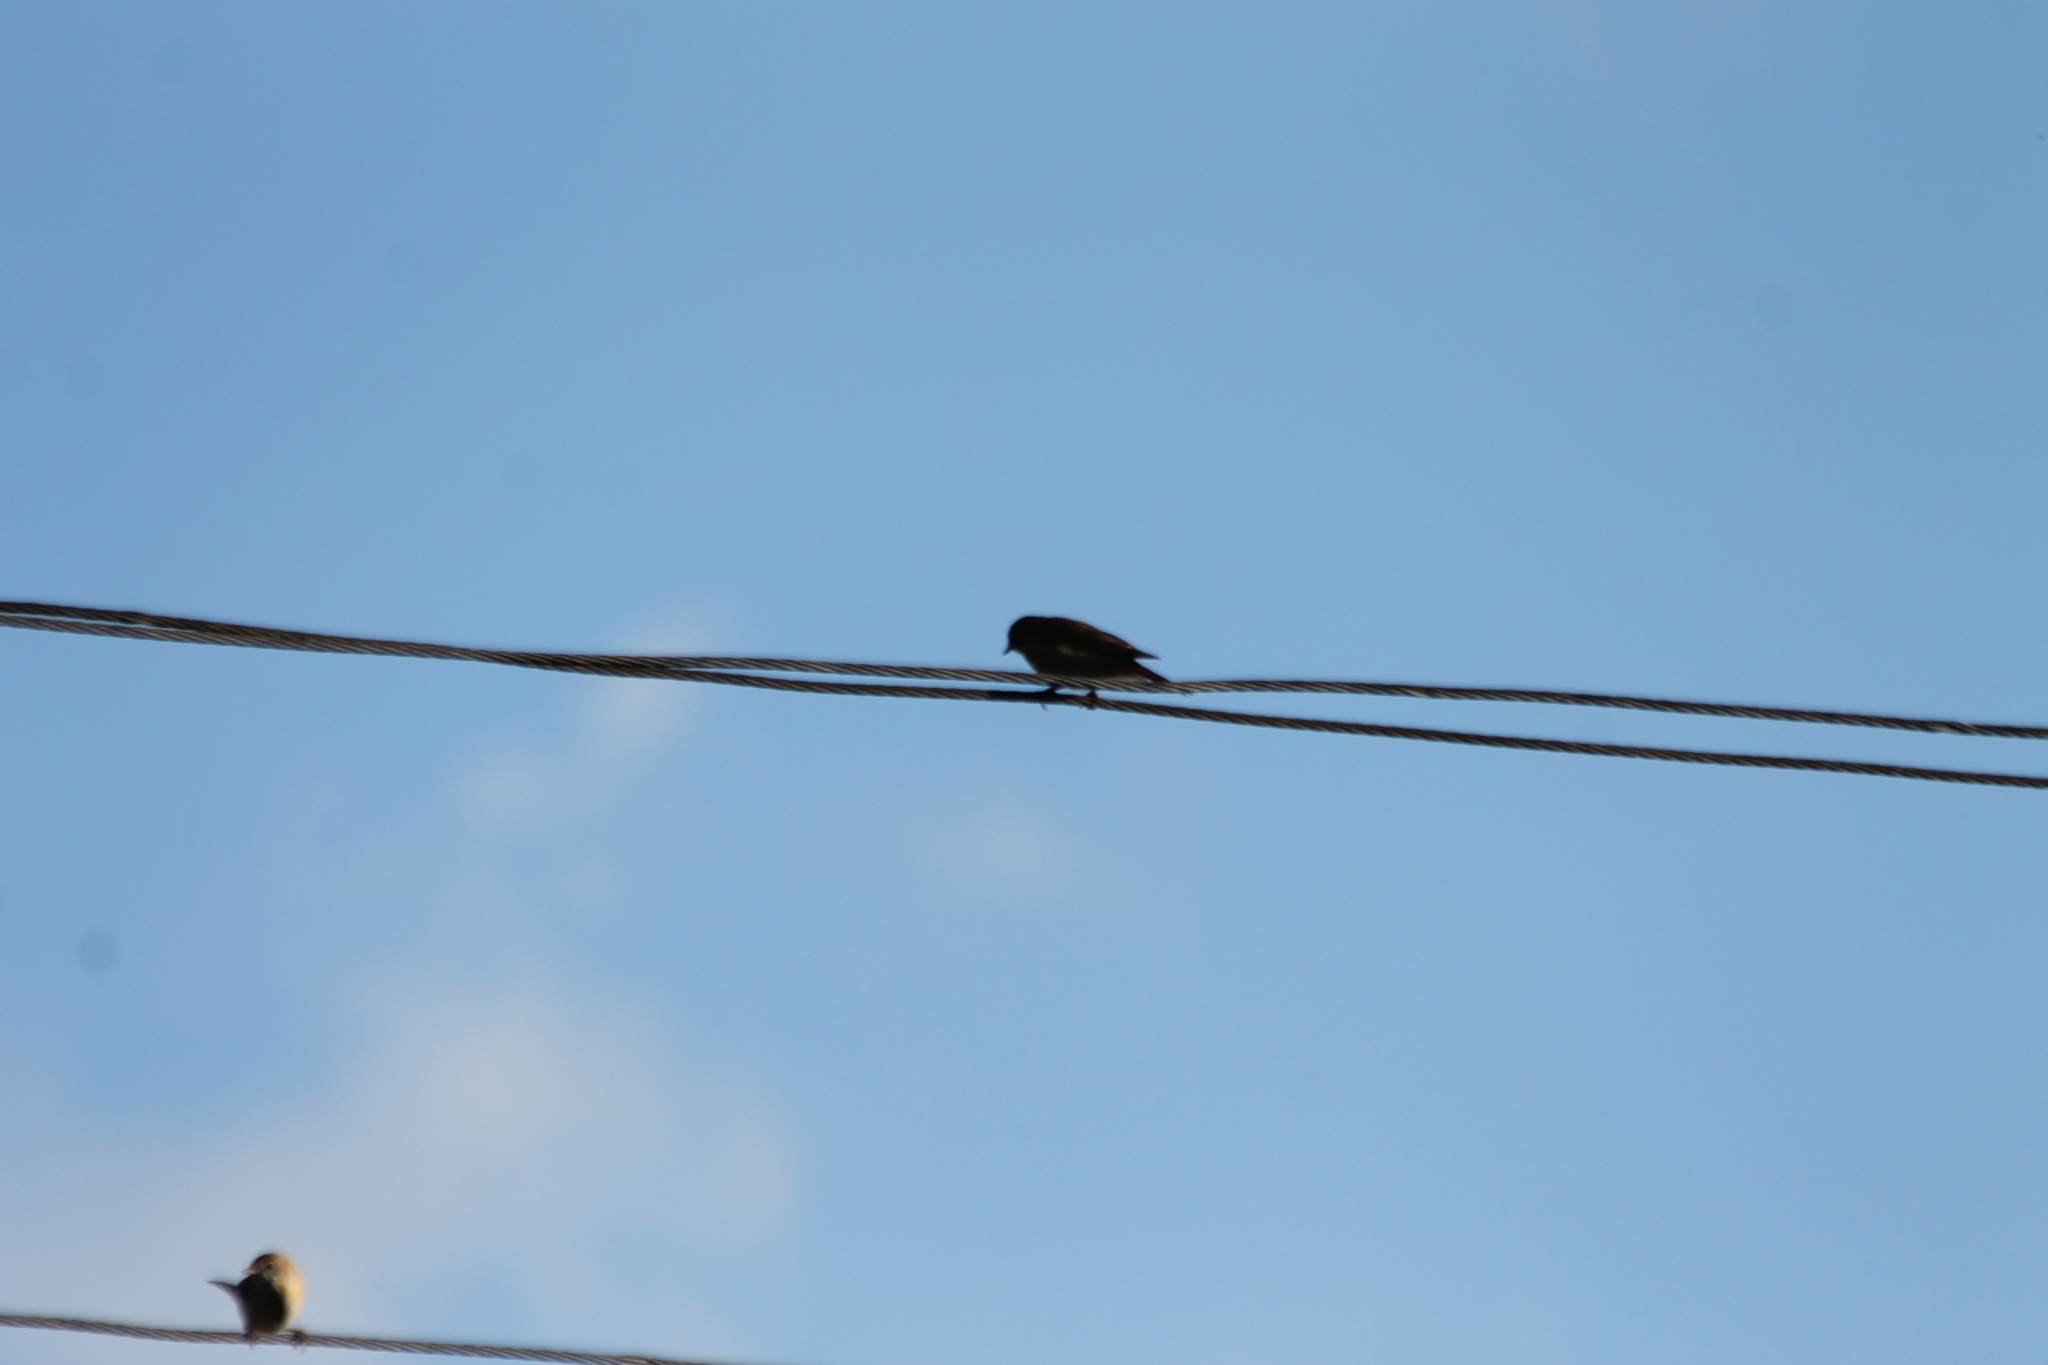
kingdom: Animalia
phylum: Chordata
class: Aves
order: Passeriformes
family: Muscicapidae
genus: Phoenicurus
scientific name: Phoenicurus ochruros
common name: Black redstart
